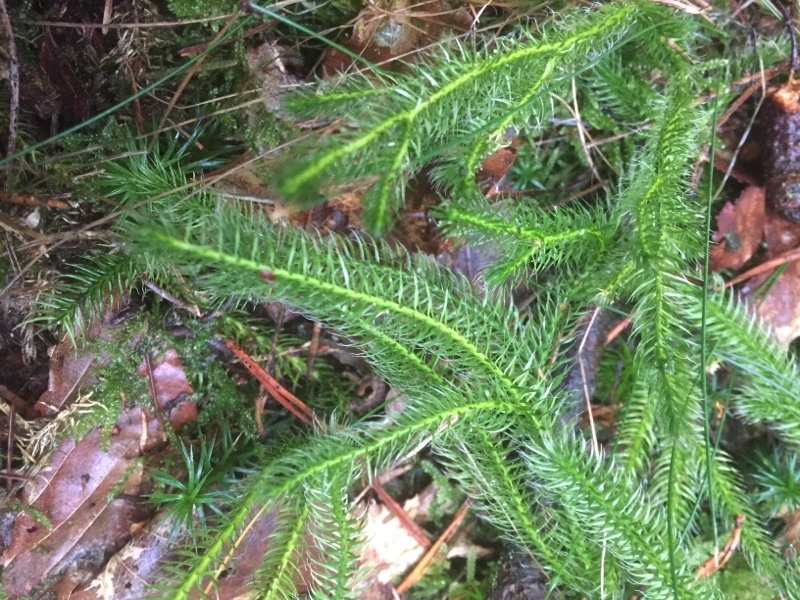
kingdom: Plantae
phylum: Tracheophyta
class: Lycopodiopsida
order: Lycopodiales
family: Lycopodiaceae
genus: Lycopodium
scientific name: Lycopodium clavatum
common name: Stag's-horn clubmoss
